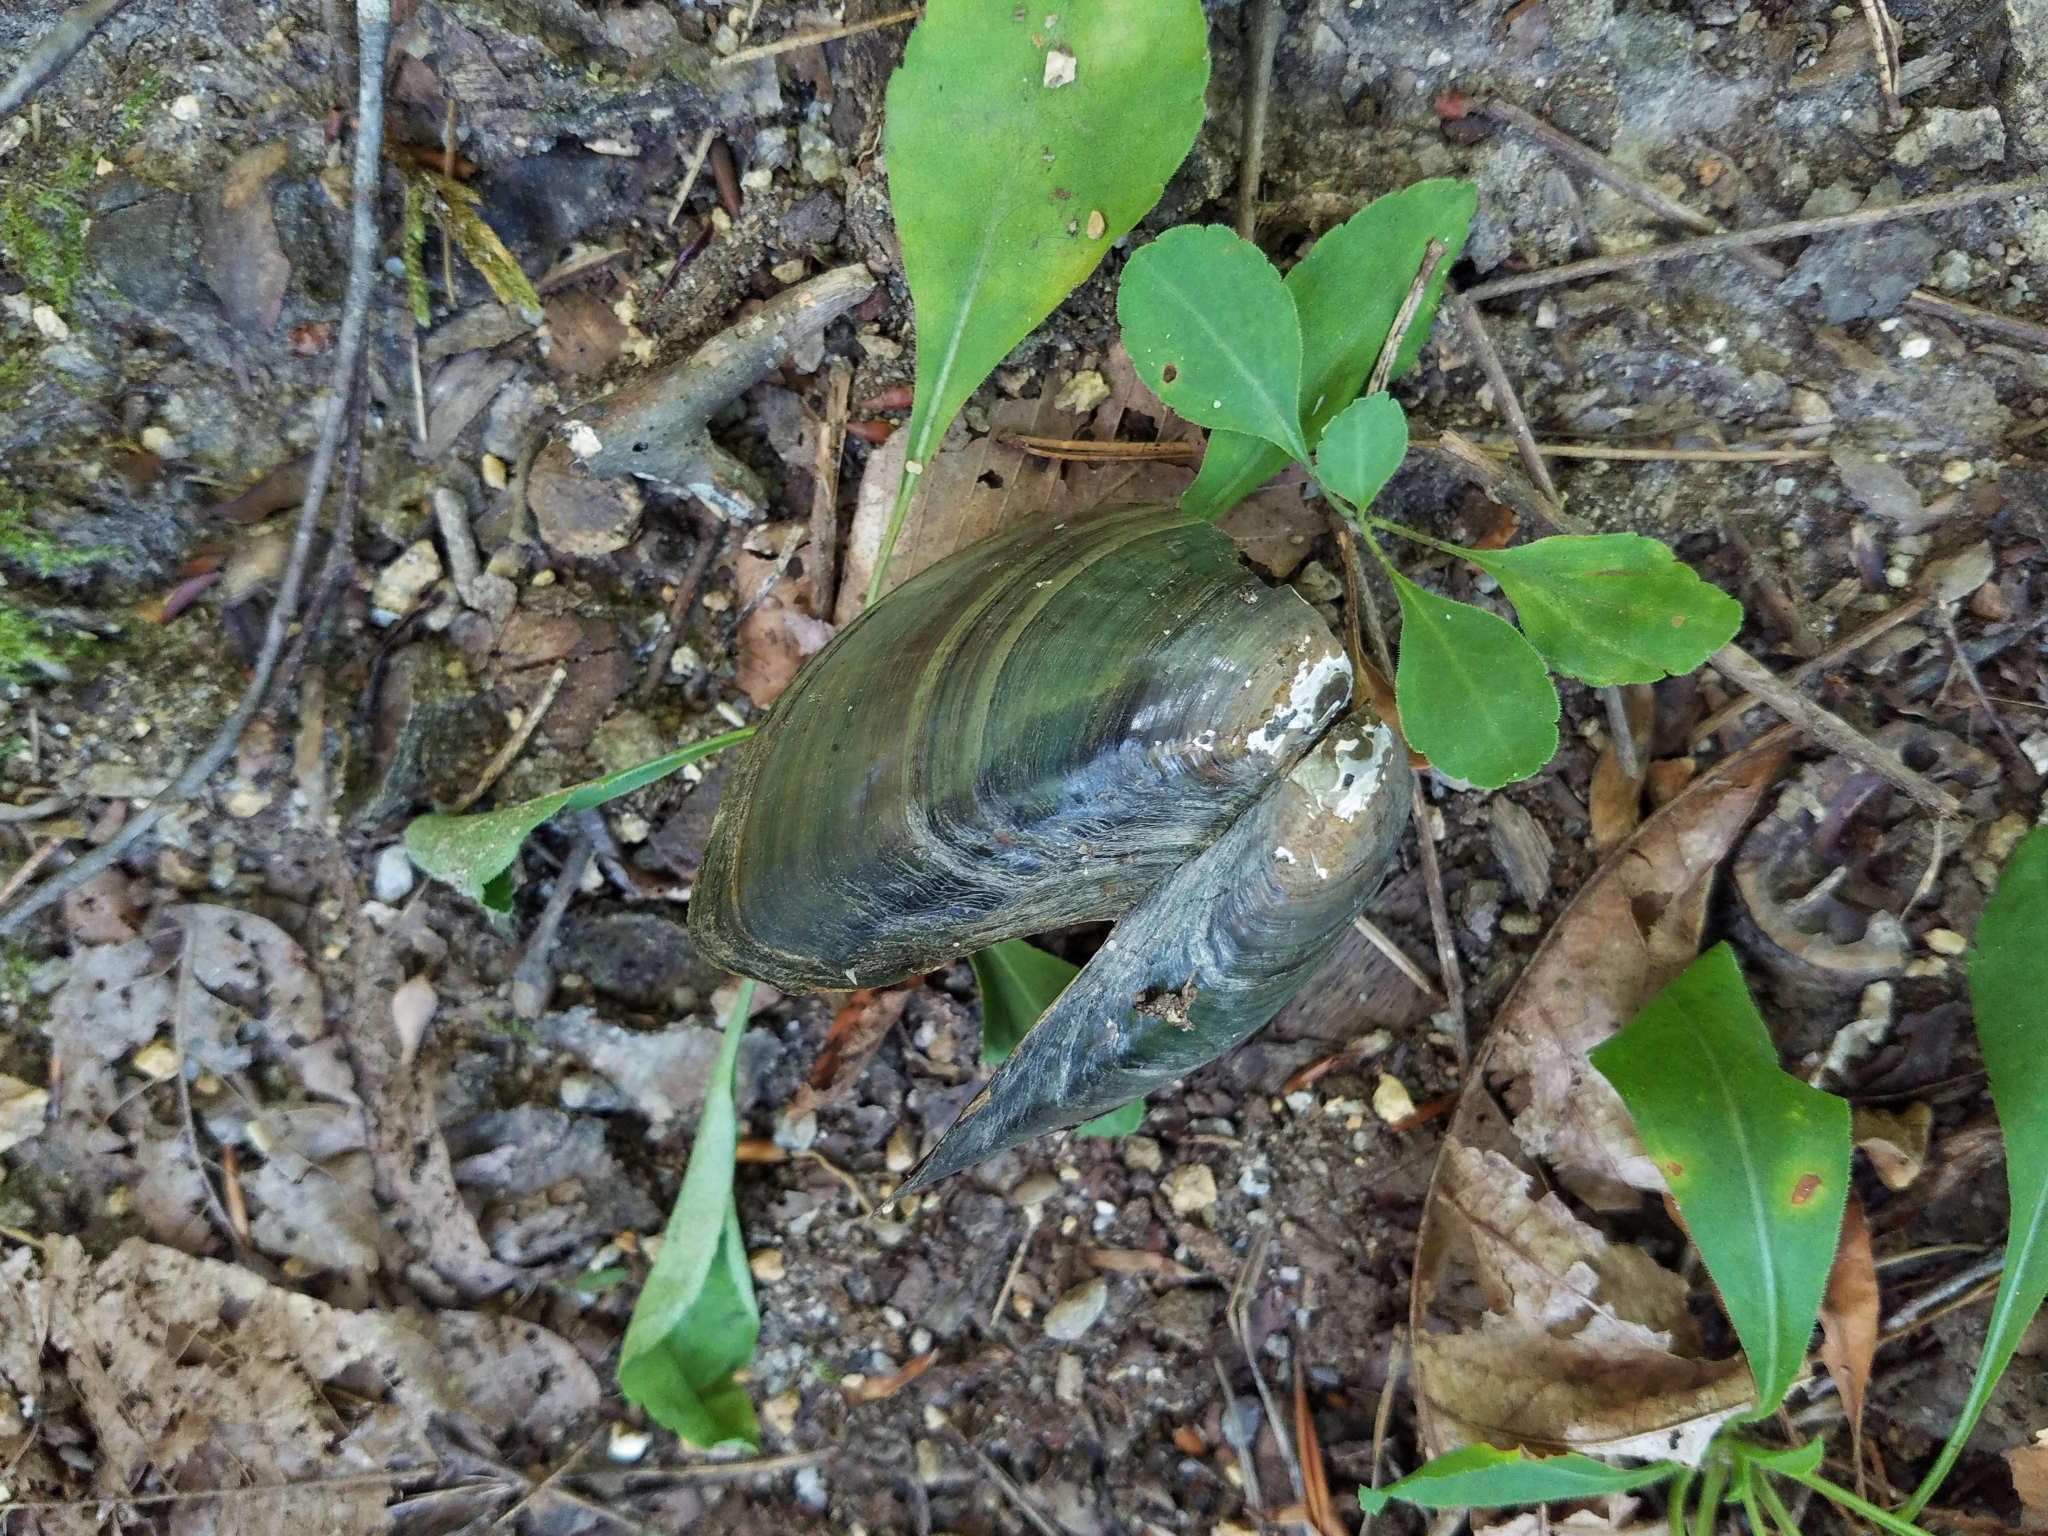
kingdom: Animalia
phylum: Mollusca
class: Bivalvia
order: Unionida
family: Unionidae
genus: Utterbackia
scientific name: Utterbackia imbecillis
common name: Paper pondshell
